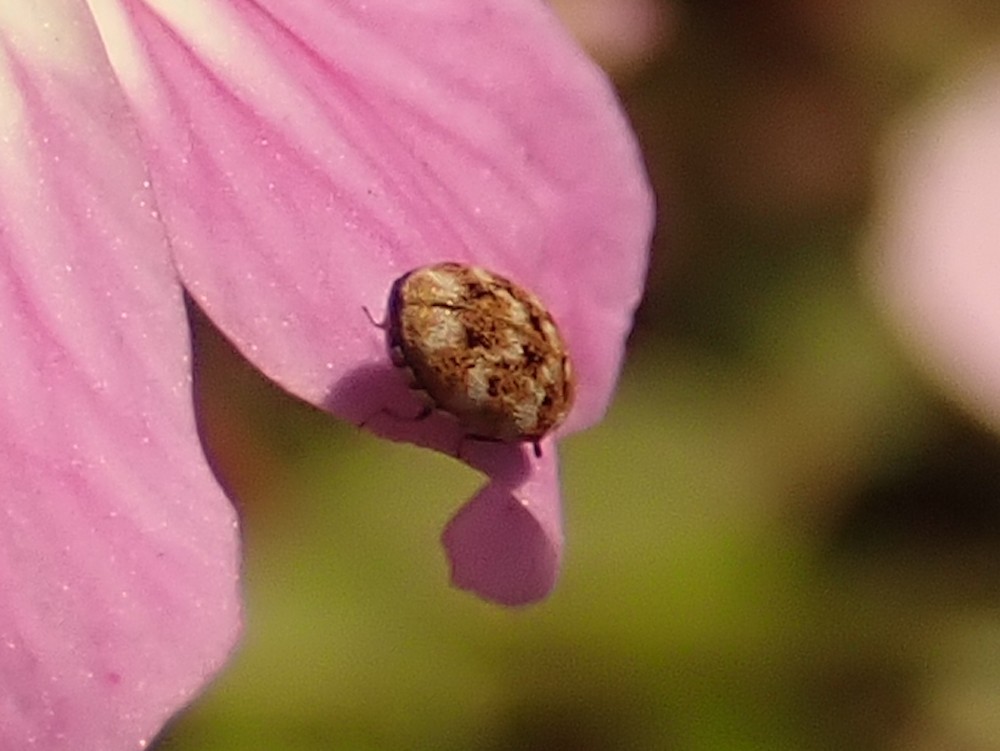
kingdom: Animalia
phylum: Arthropoda
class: Insecta
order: Coleoptera
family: Dermestidae
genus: Anthrenus
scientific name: Anthrenus verbasci
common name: Varied carpet beetle
